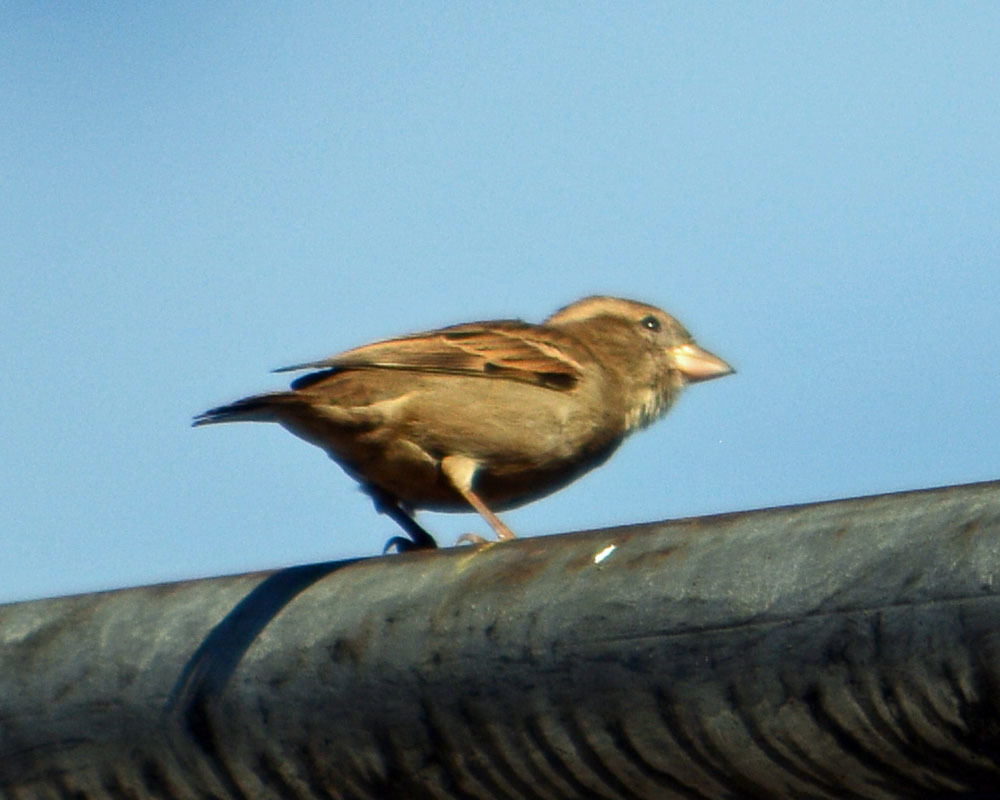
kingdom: Animalia
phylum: Chordata
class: Aves
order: Passeriformes
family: Passeridae
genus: Passer
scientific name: Passer domesticus
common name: House sparrow
